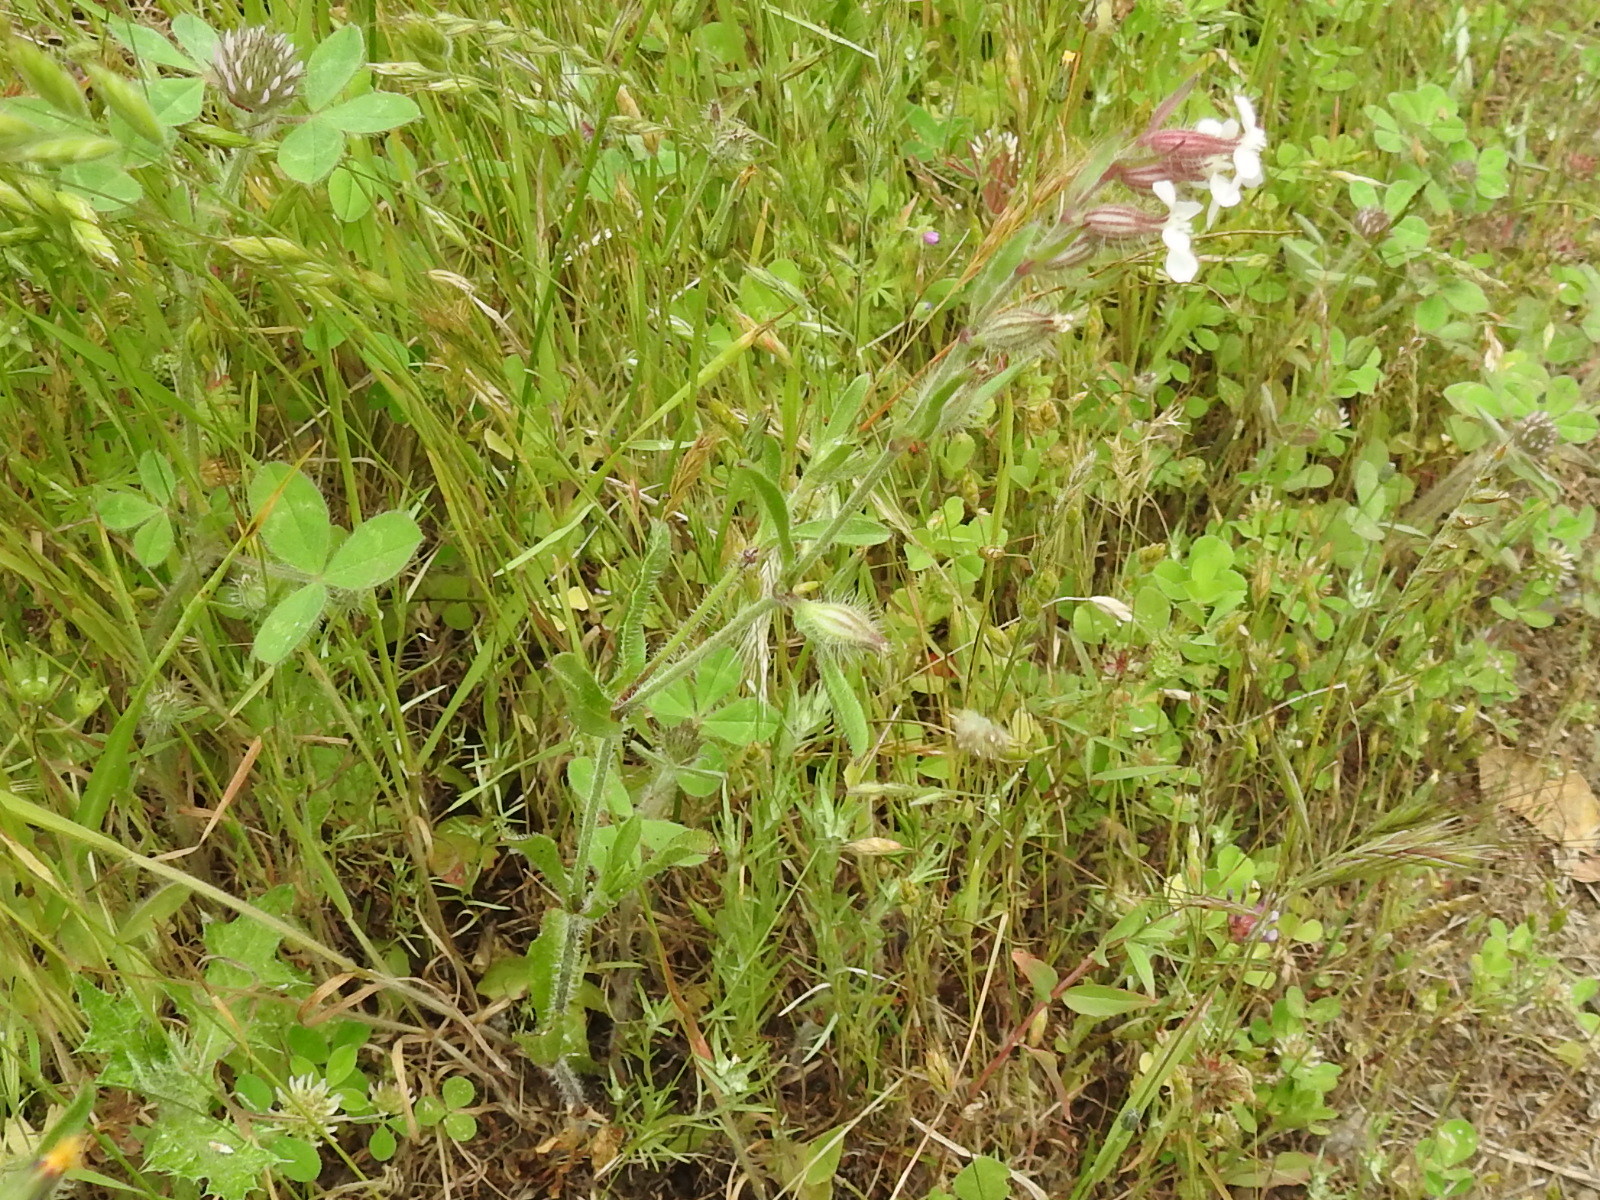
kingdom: Plantae
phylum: Tracheophyta
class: Magnoliopsida
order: Caryophyllales
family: Caryophyllaceae
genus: Silene
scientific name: Silene gallica
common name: Small-flowered catchfly
